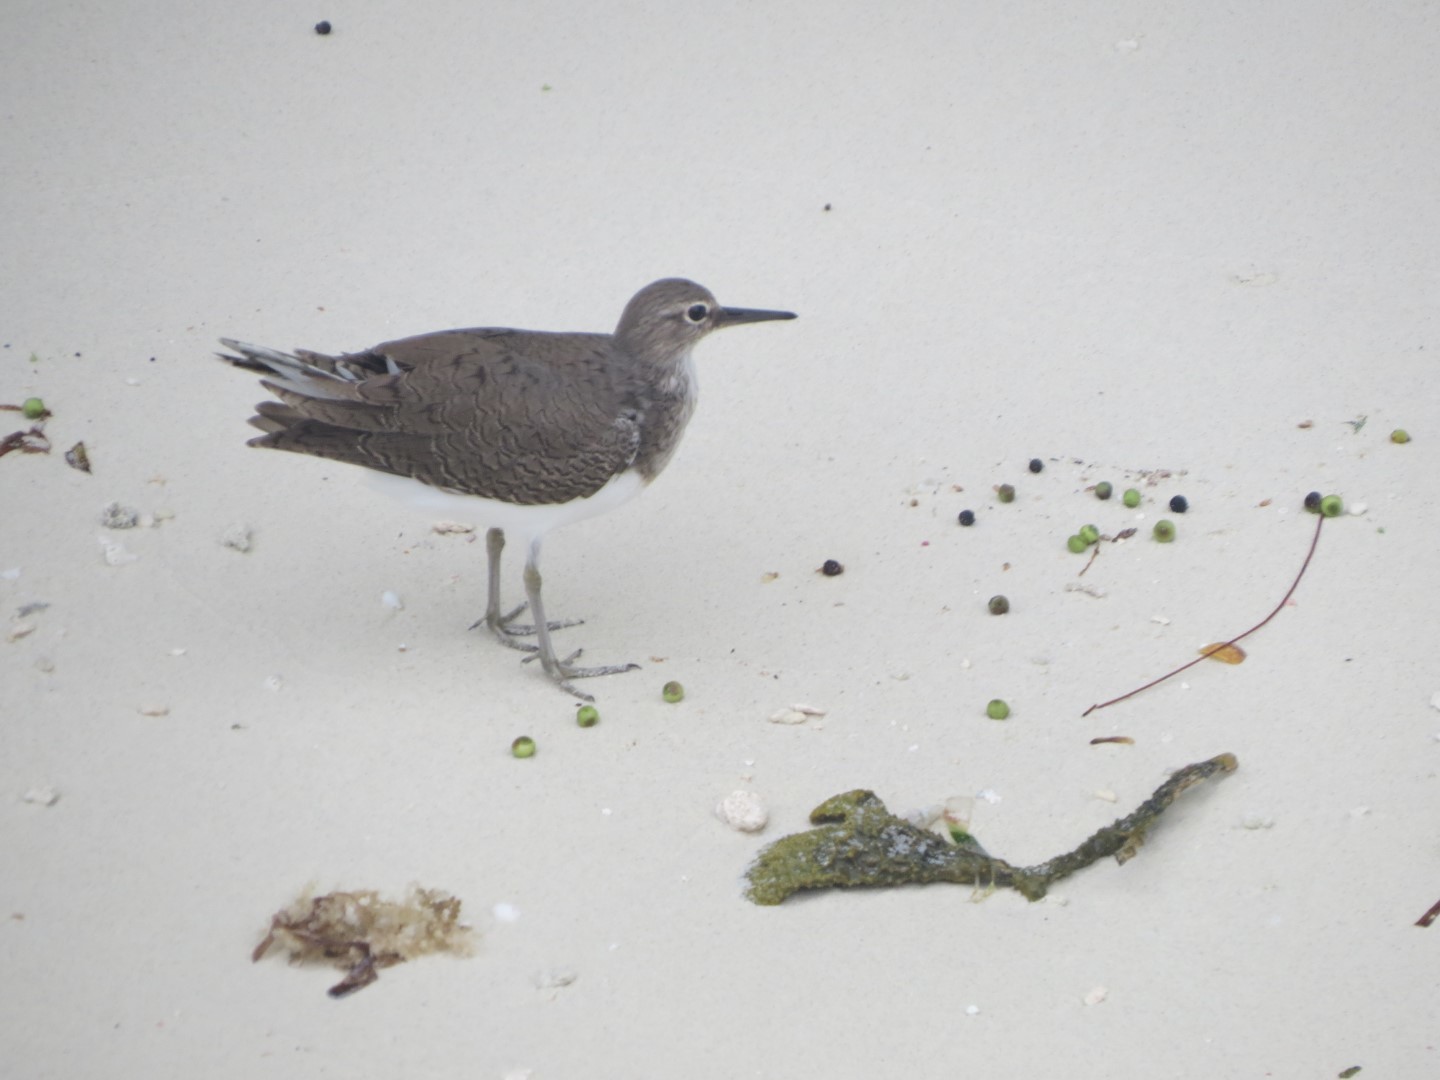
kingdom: Animalia
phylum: Chordata
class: Aves
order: Charadriiformes
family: Scolopacidae
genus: Actitis
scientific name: Actitis hypoleucos
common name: Common sandpiper
